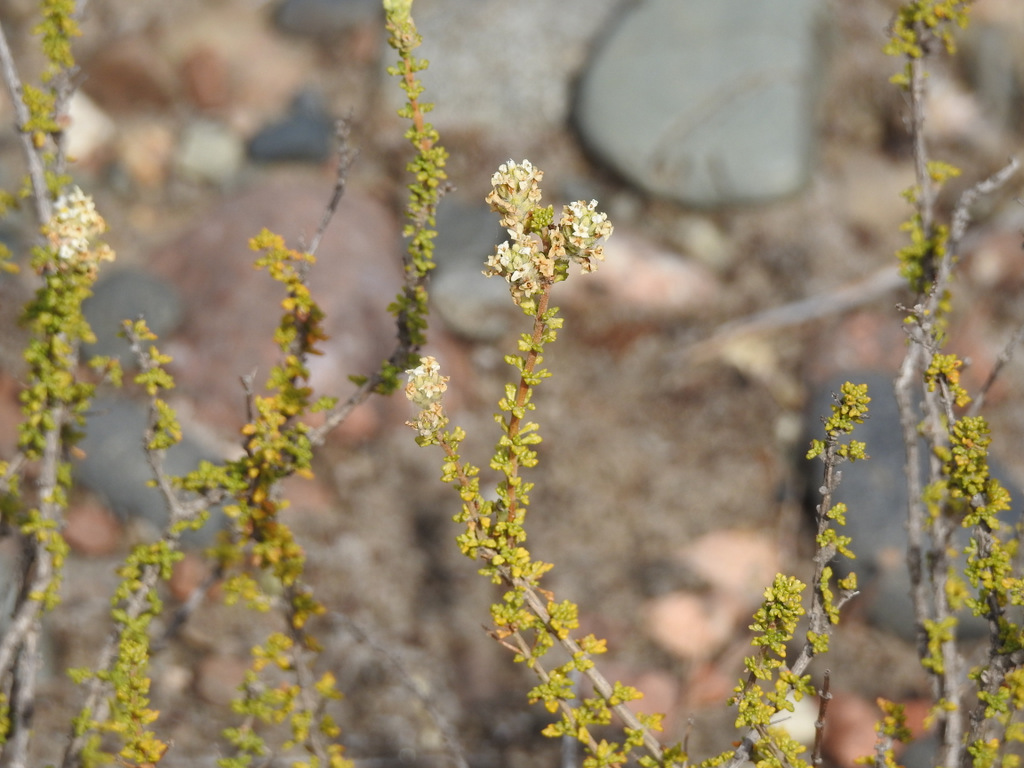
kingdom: Plantae
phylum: Tracheophyta
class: Magnoliopsida
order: Lamiales
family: Verbenaceae
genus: Acantholippia
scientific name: Acantholippia seriphioides
